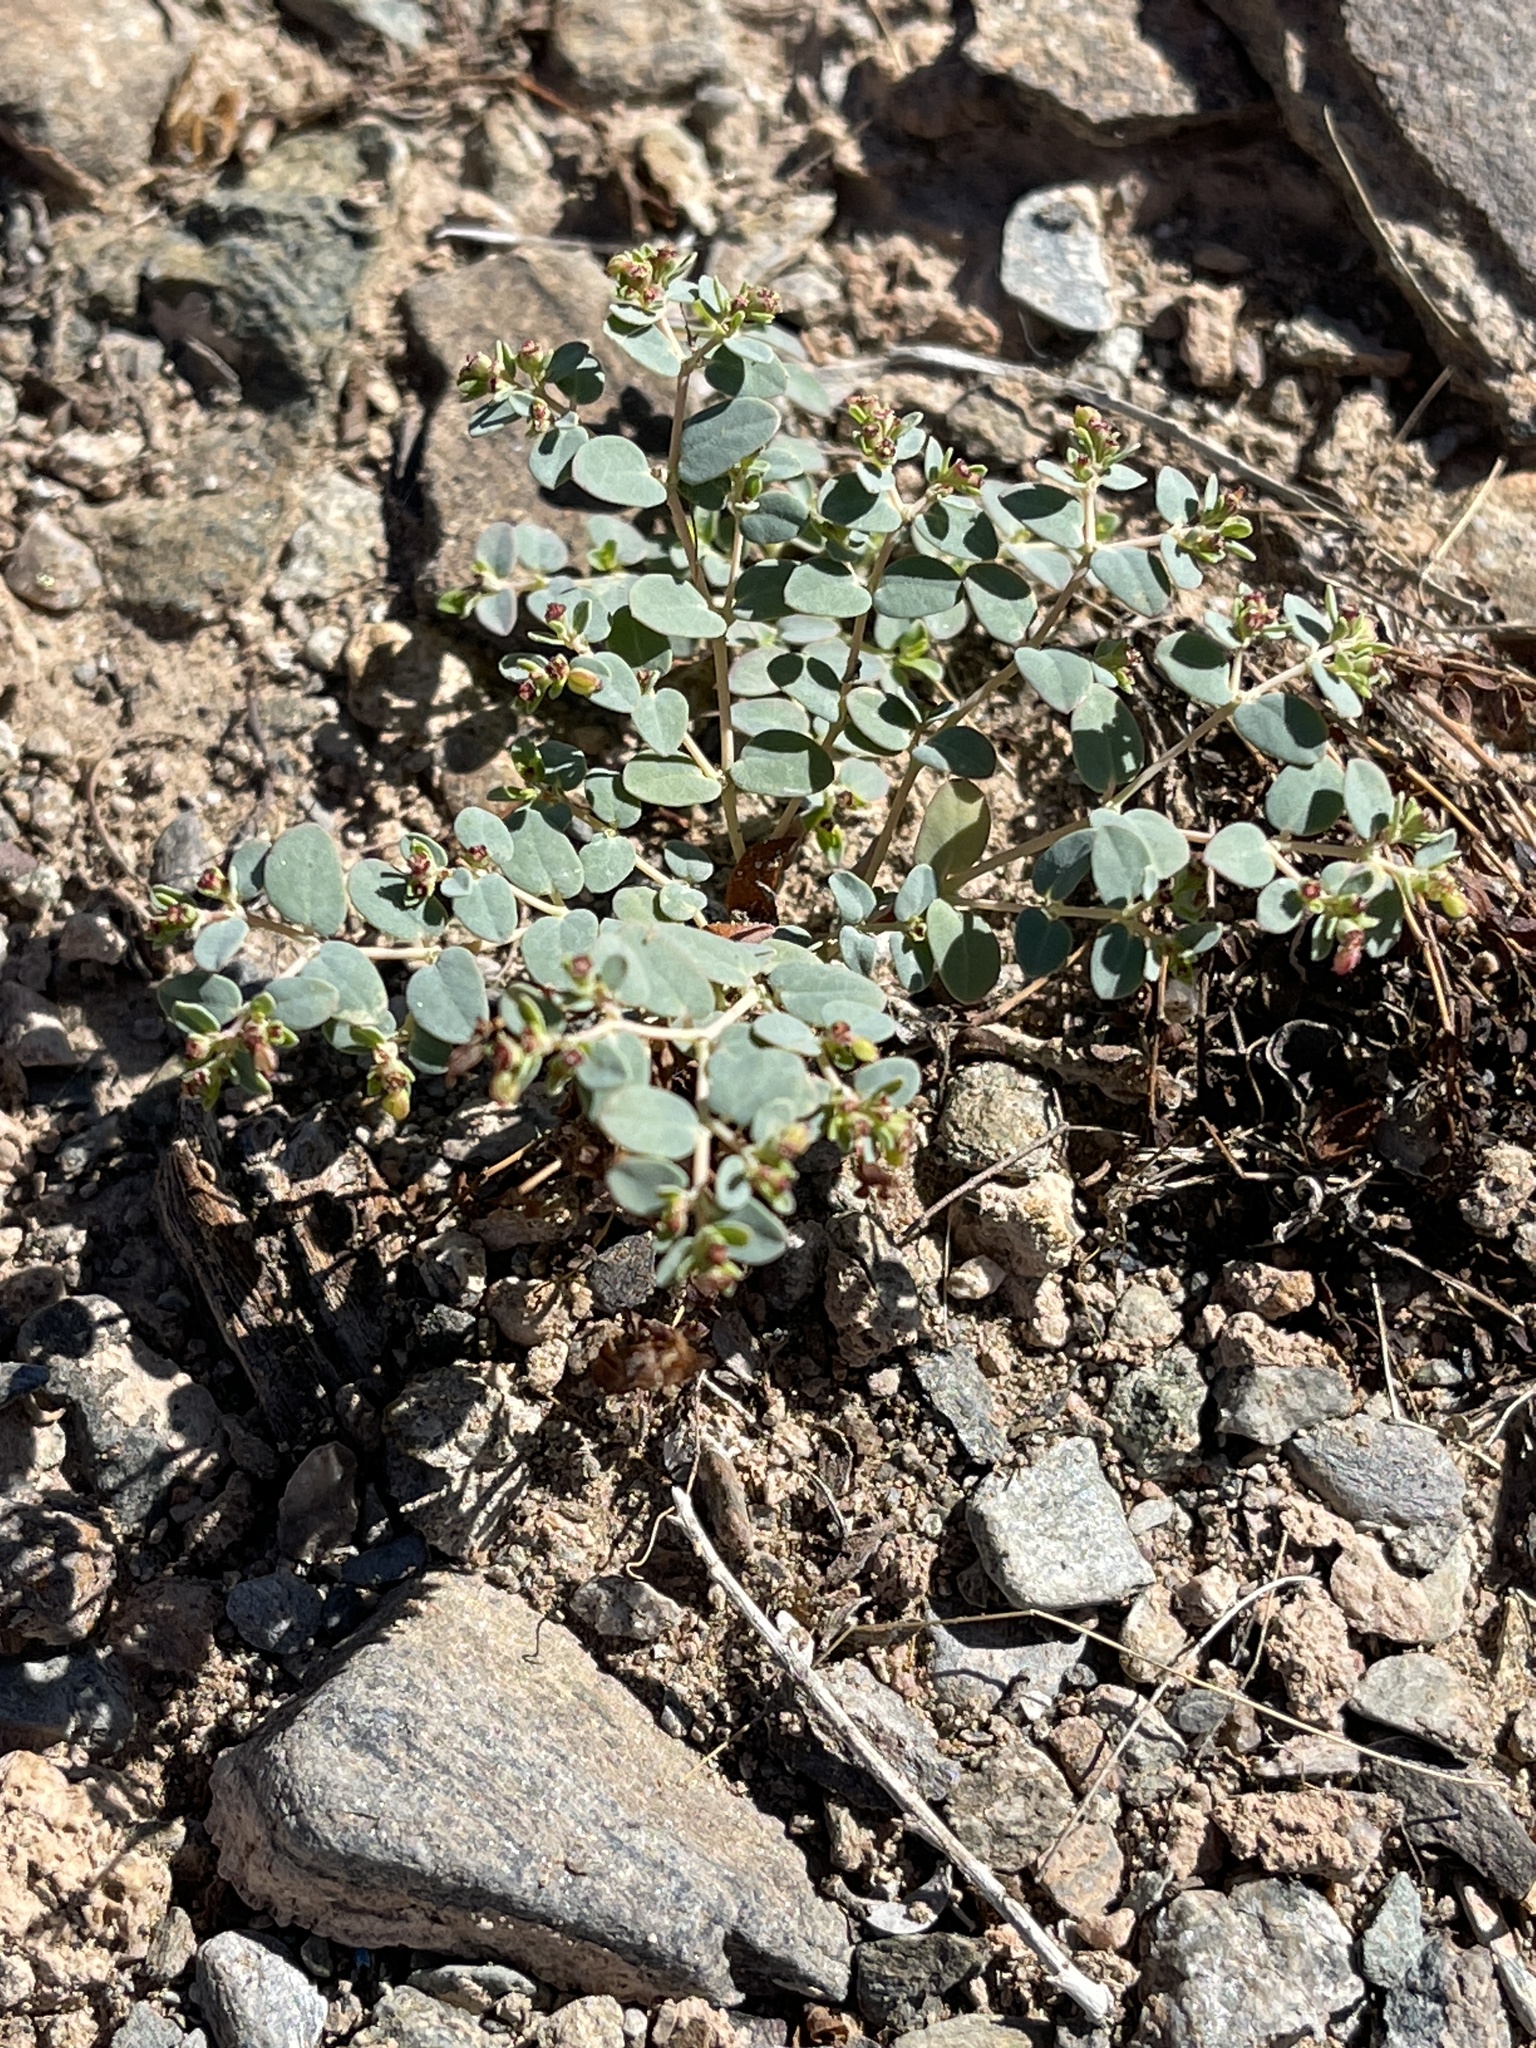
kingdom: Plantae
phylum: Tracheophyta
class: Magnoliopsida
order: Malpighiales
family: Euphorbiaceae
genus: Euphorbia
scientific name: Euphorbia polycarpa
